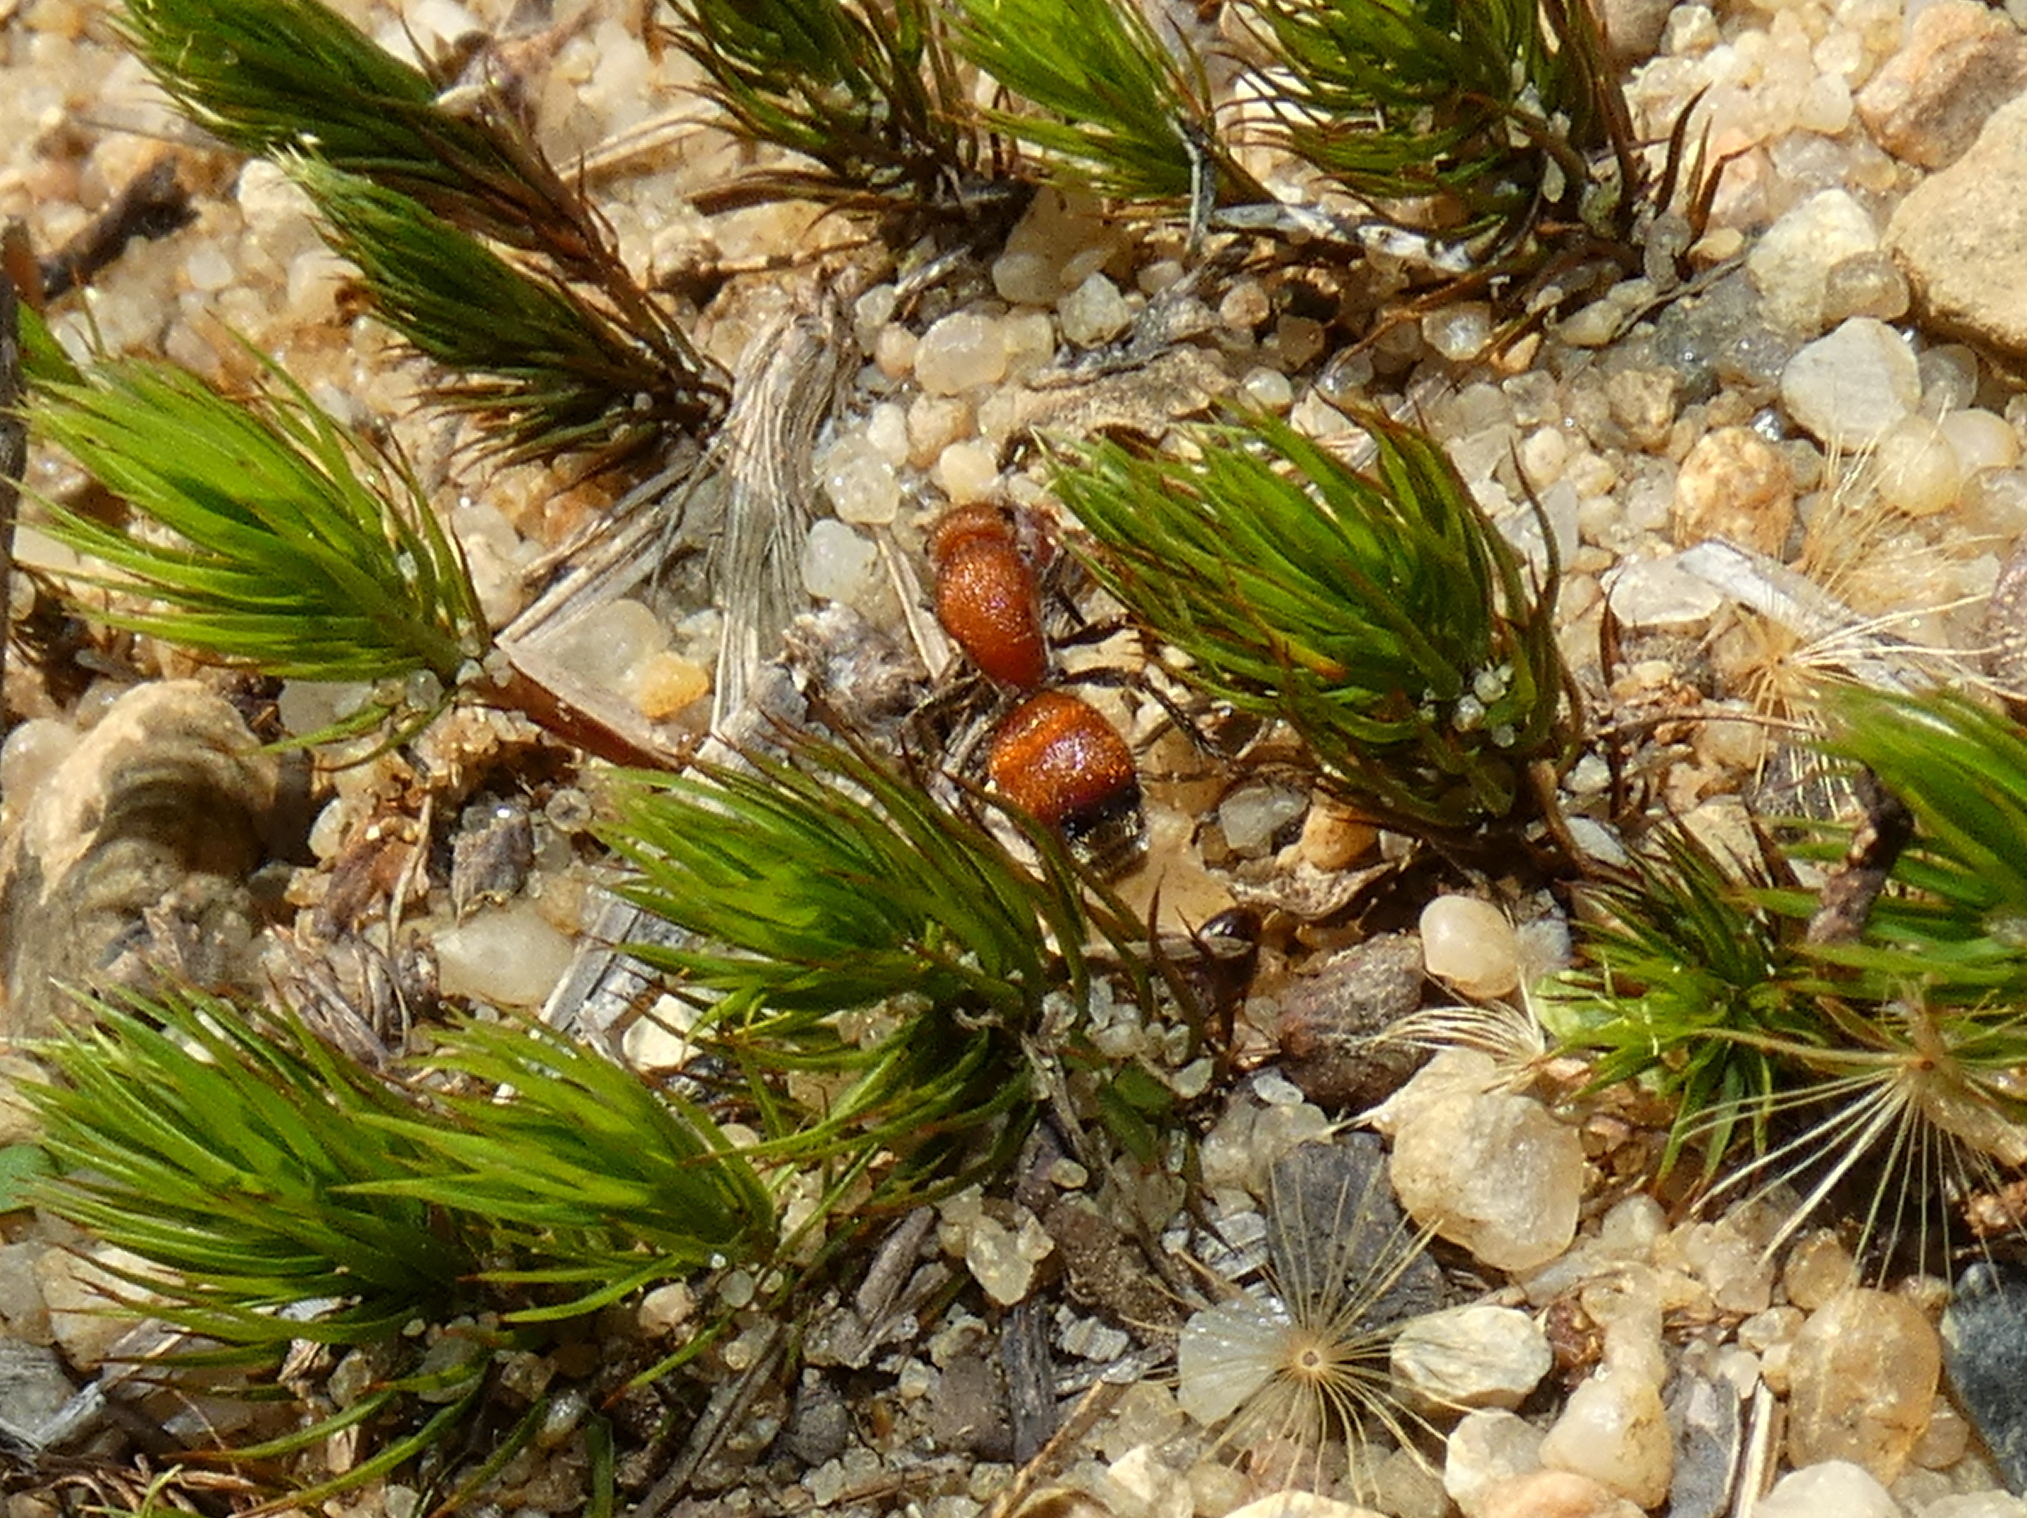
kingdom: Animalia
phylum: Arthropoda
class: Insecta
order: Hymenoptera
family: Mutillidae
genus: Dasymutilla
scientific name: Dasymutilla
